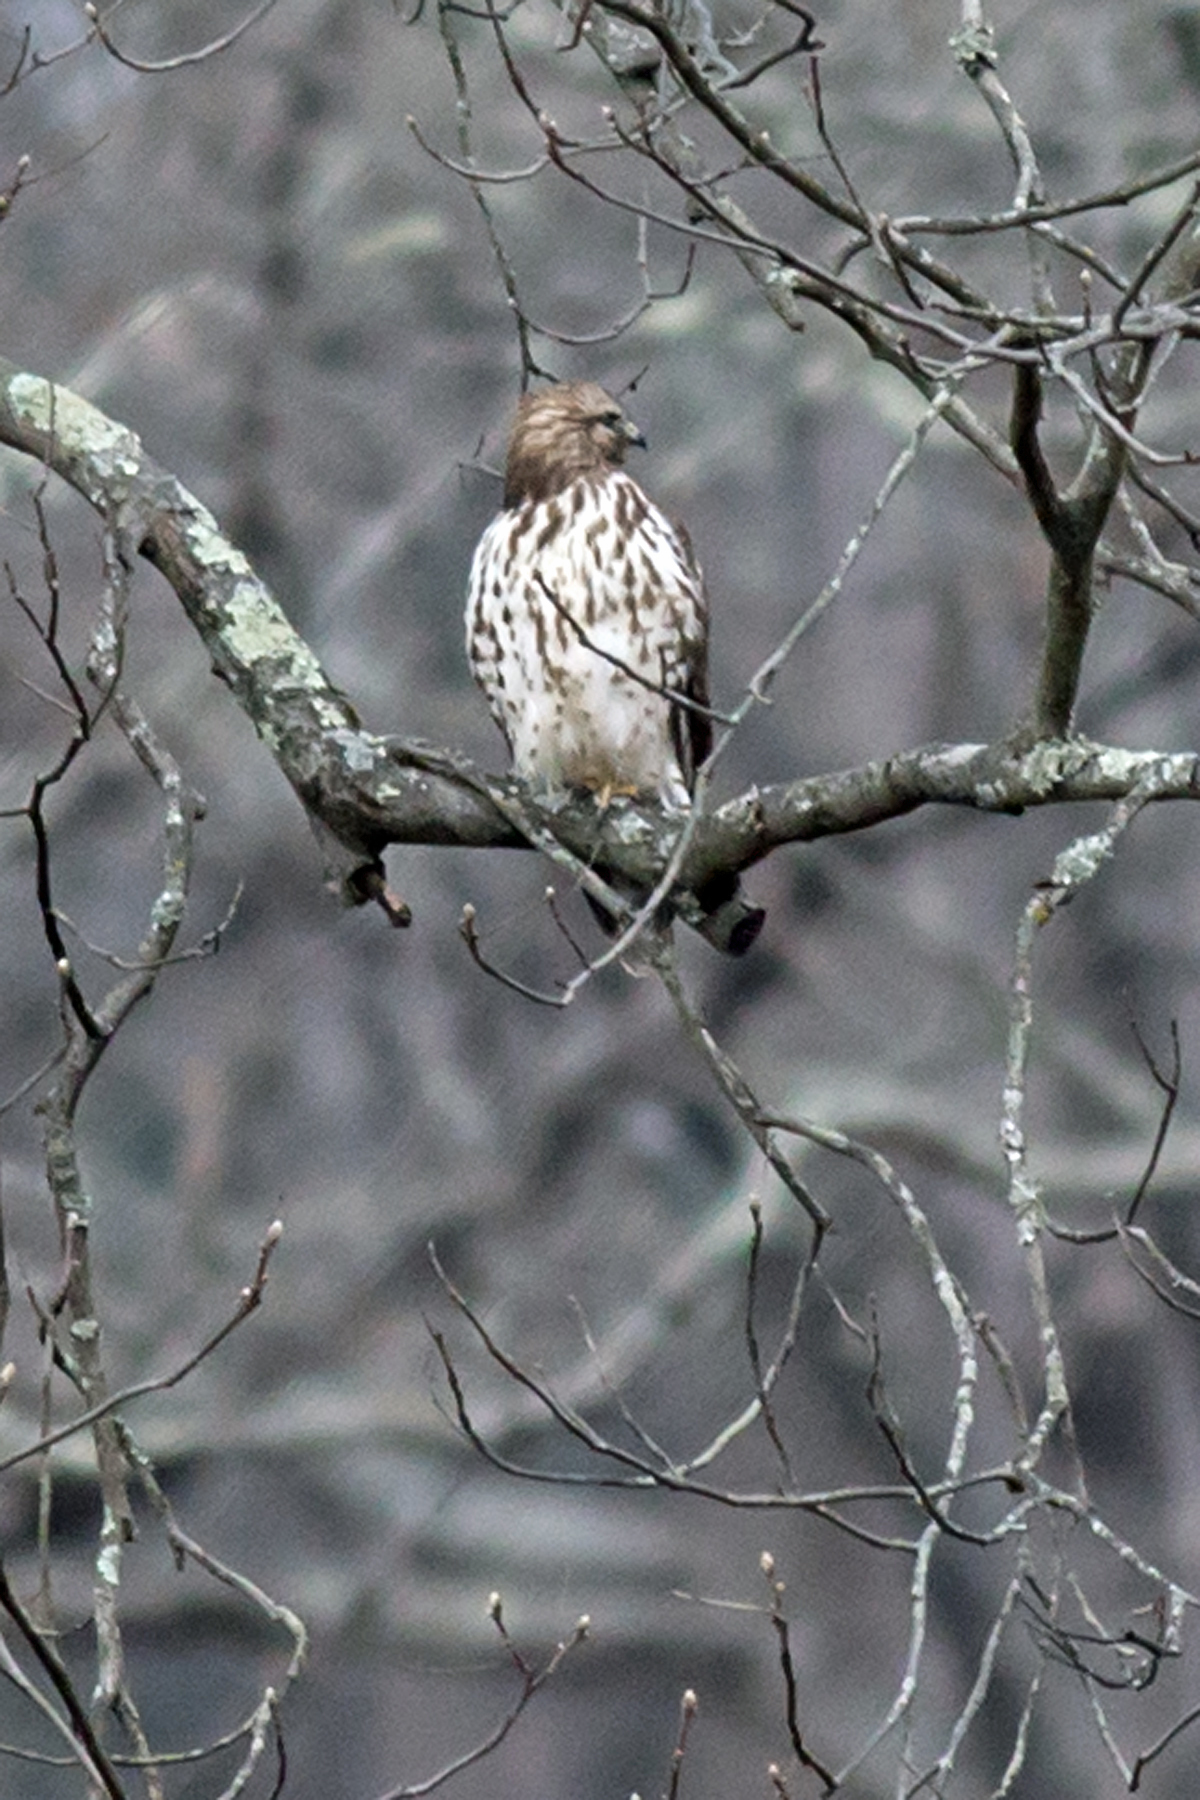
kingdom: Animalia
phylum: Chordata
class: Aves
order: Accipitriformes
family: Accipitridae
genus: Buteo
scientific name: Buteo lineatus
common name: Red-shouldered hawk
